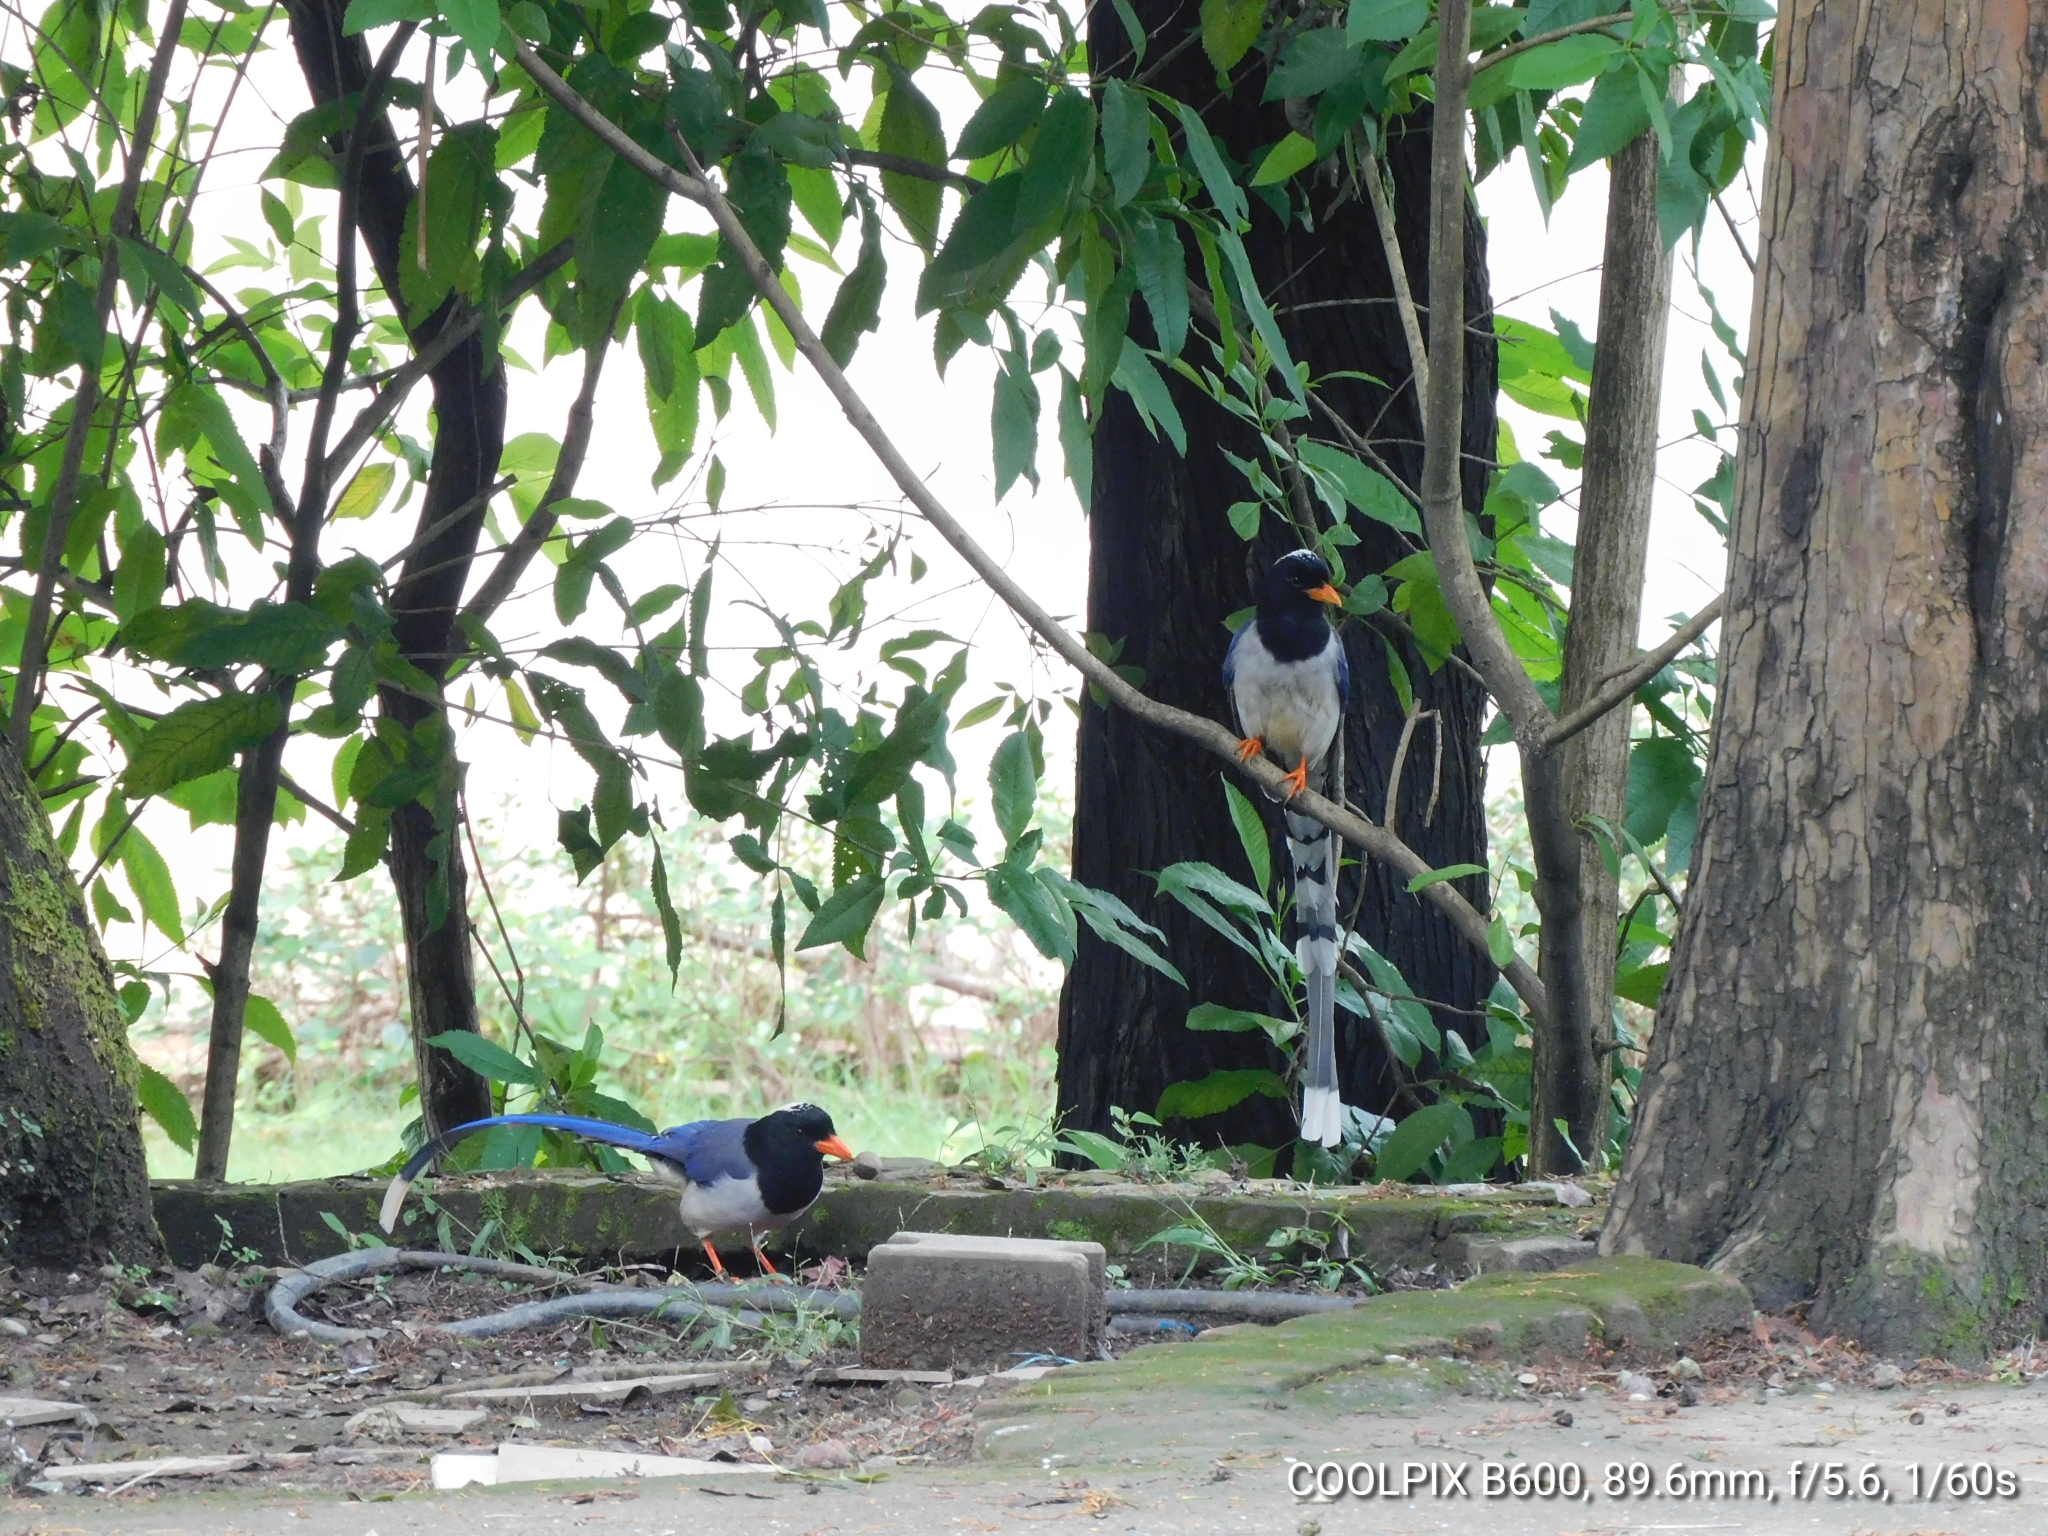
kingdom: Animalia
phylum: Chordata
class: Aves
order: Passeriformes
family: Corvidae
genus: Urocissa
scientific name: Urocissa erythroryncha
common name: Red-billed blue magpie
